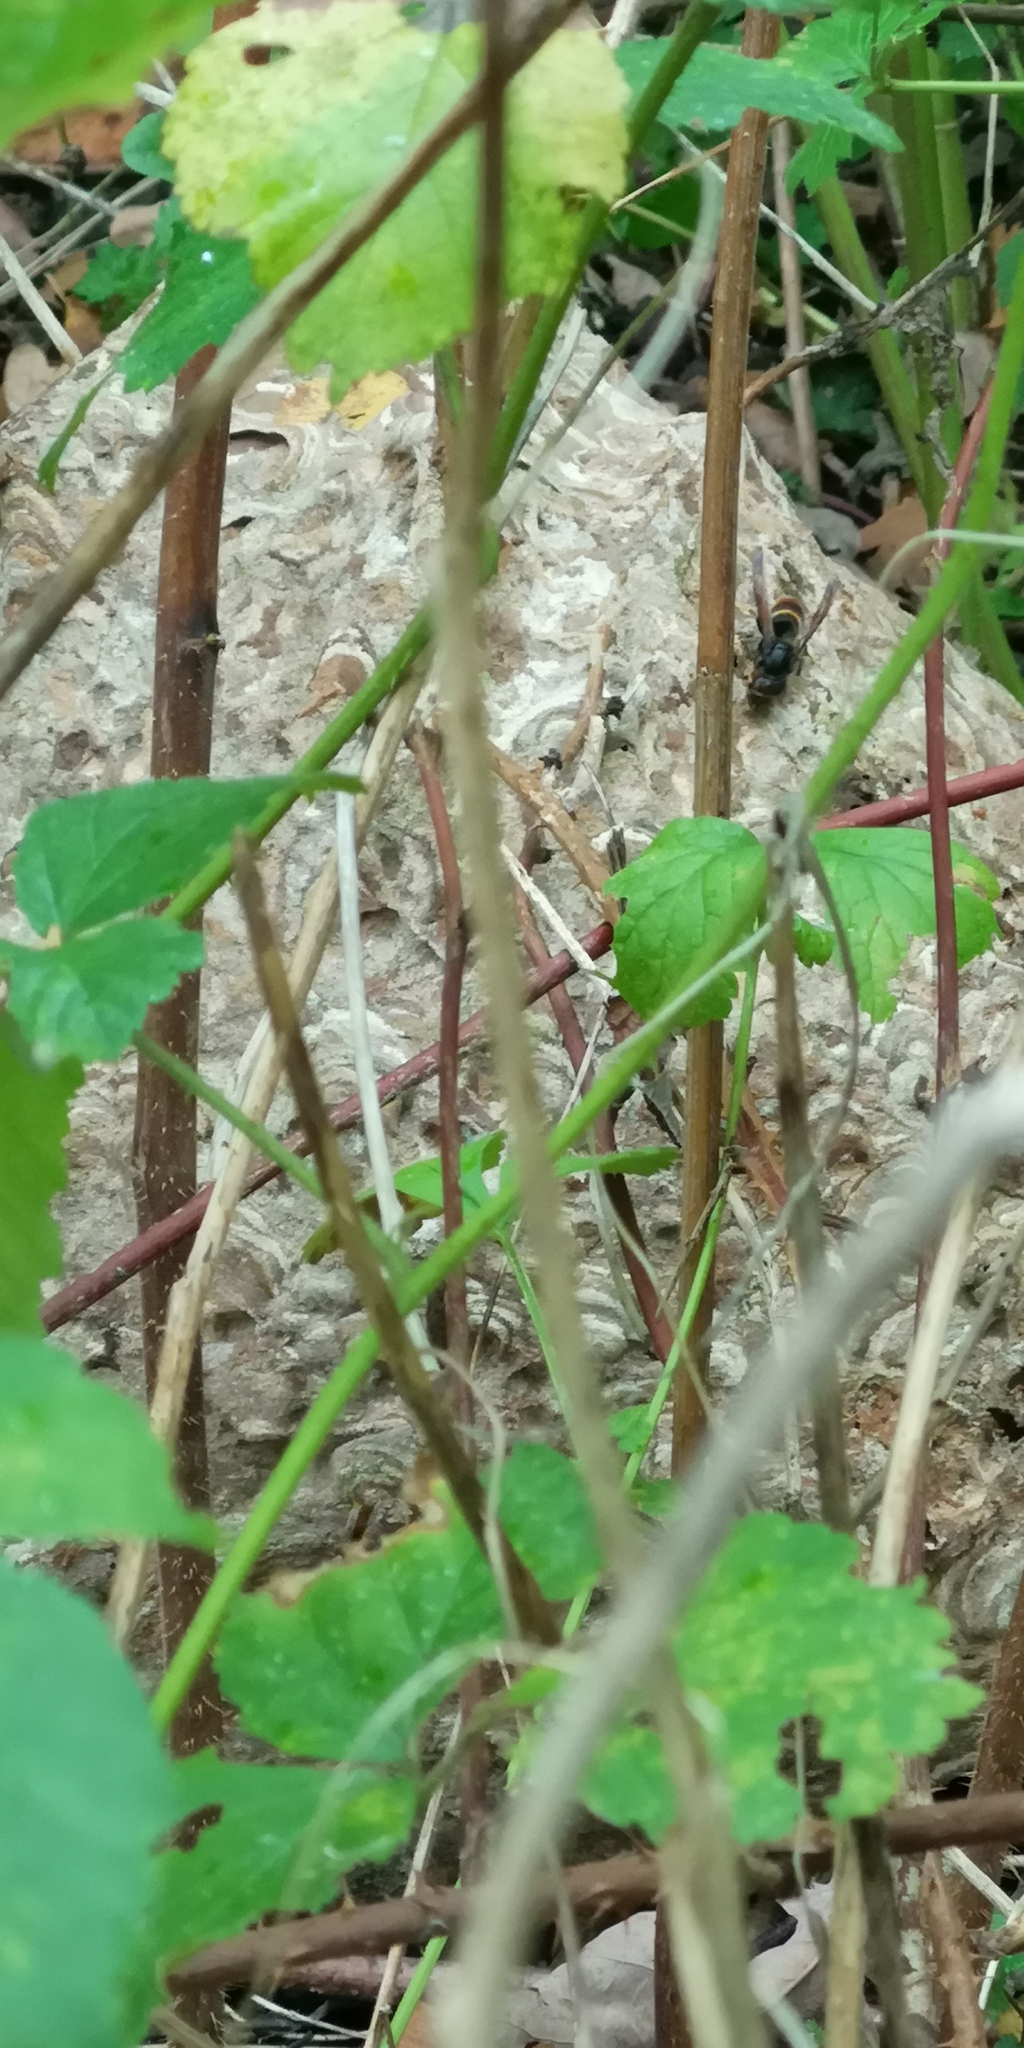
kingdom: Animalia
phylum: Arthropoda
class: Insecta
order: Hymenoptera
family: Vespidae
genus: Vespa
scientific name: Vespa velutina
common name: Asian hornet
